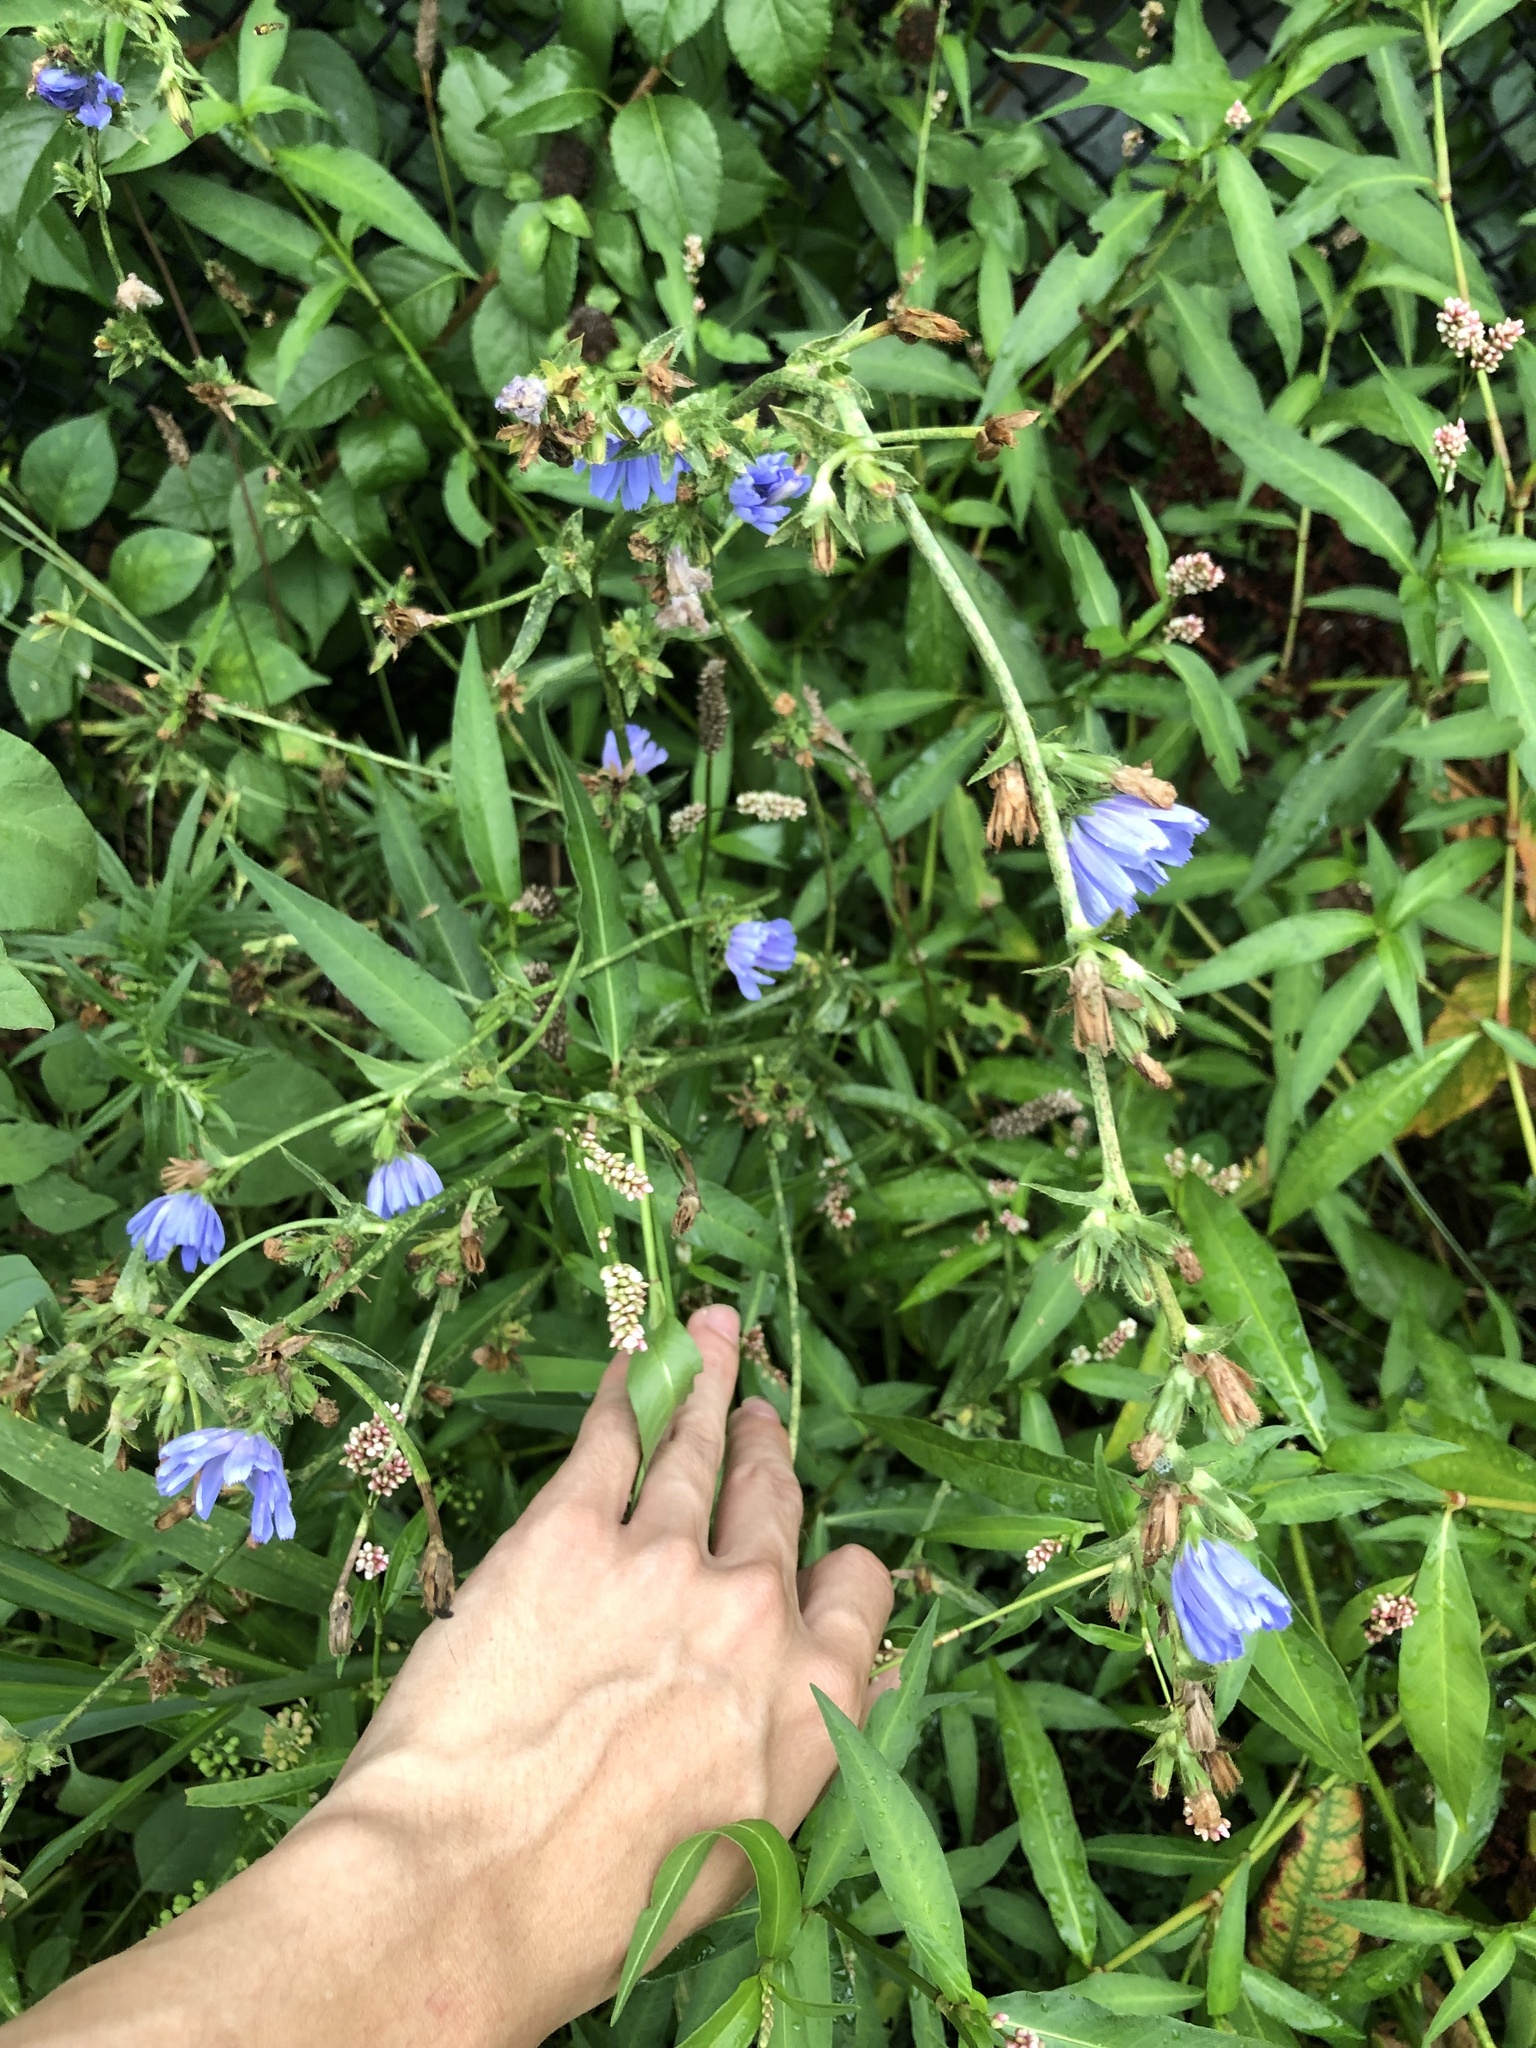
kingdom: Plantae
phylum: Tracheophyta
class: Magnoliopsida
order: Asterales
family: Asteraceae
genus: Cichorium
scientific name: Cichorium intybus
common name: Chicory
